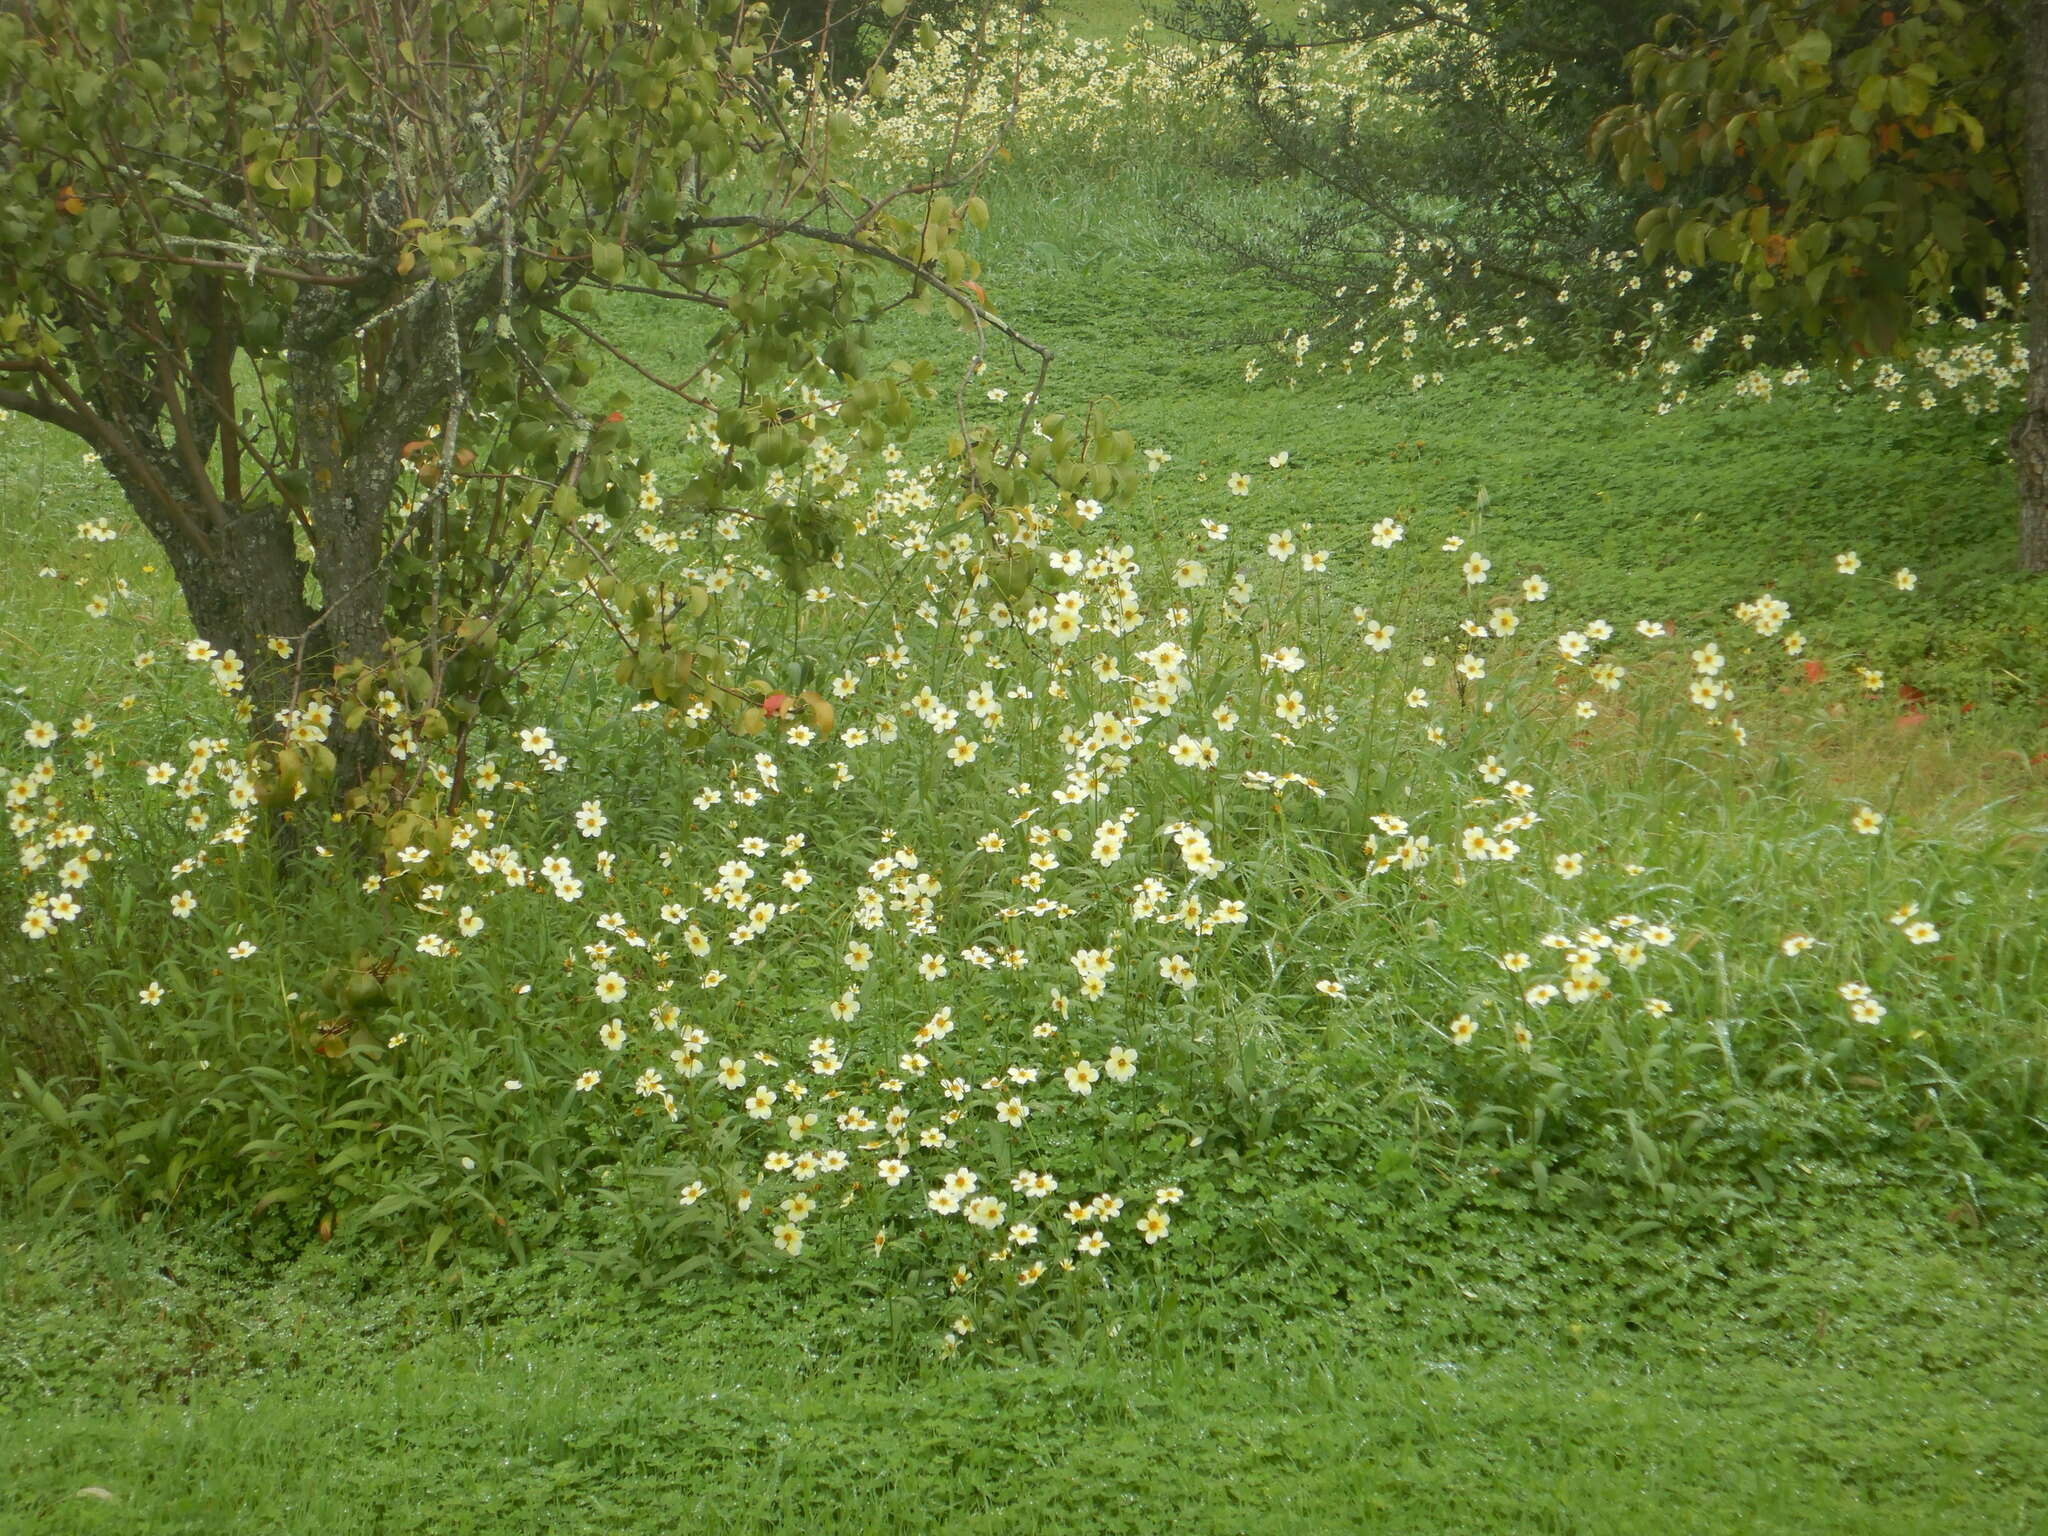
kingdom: Plantae
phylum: Tracheophyta
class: Magnoliopsida
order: Asterales
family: Asteraceae
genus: Bidens
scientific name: Bidens aurea
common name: Arizona beggar-ticks
